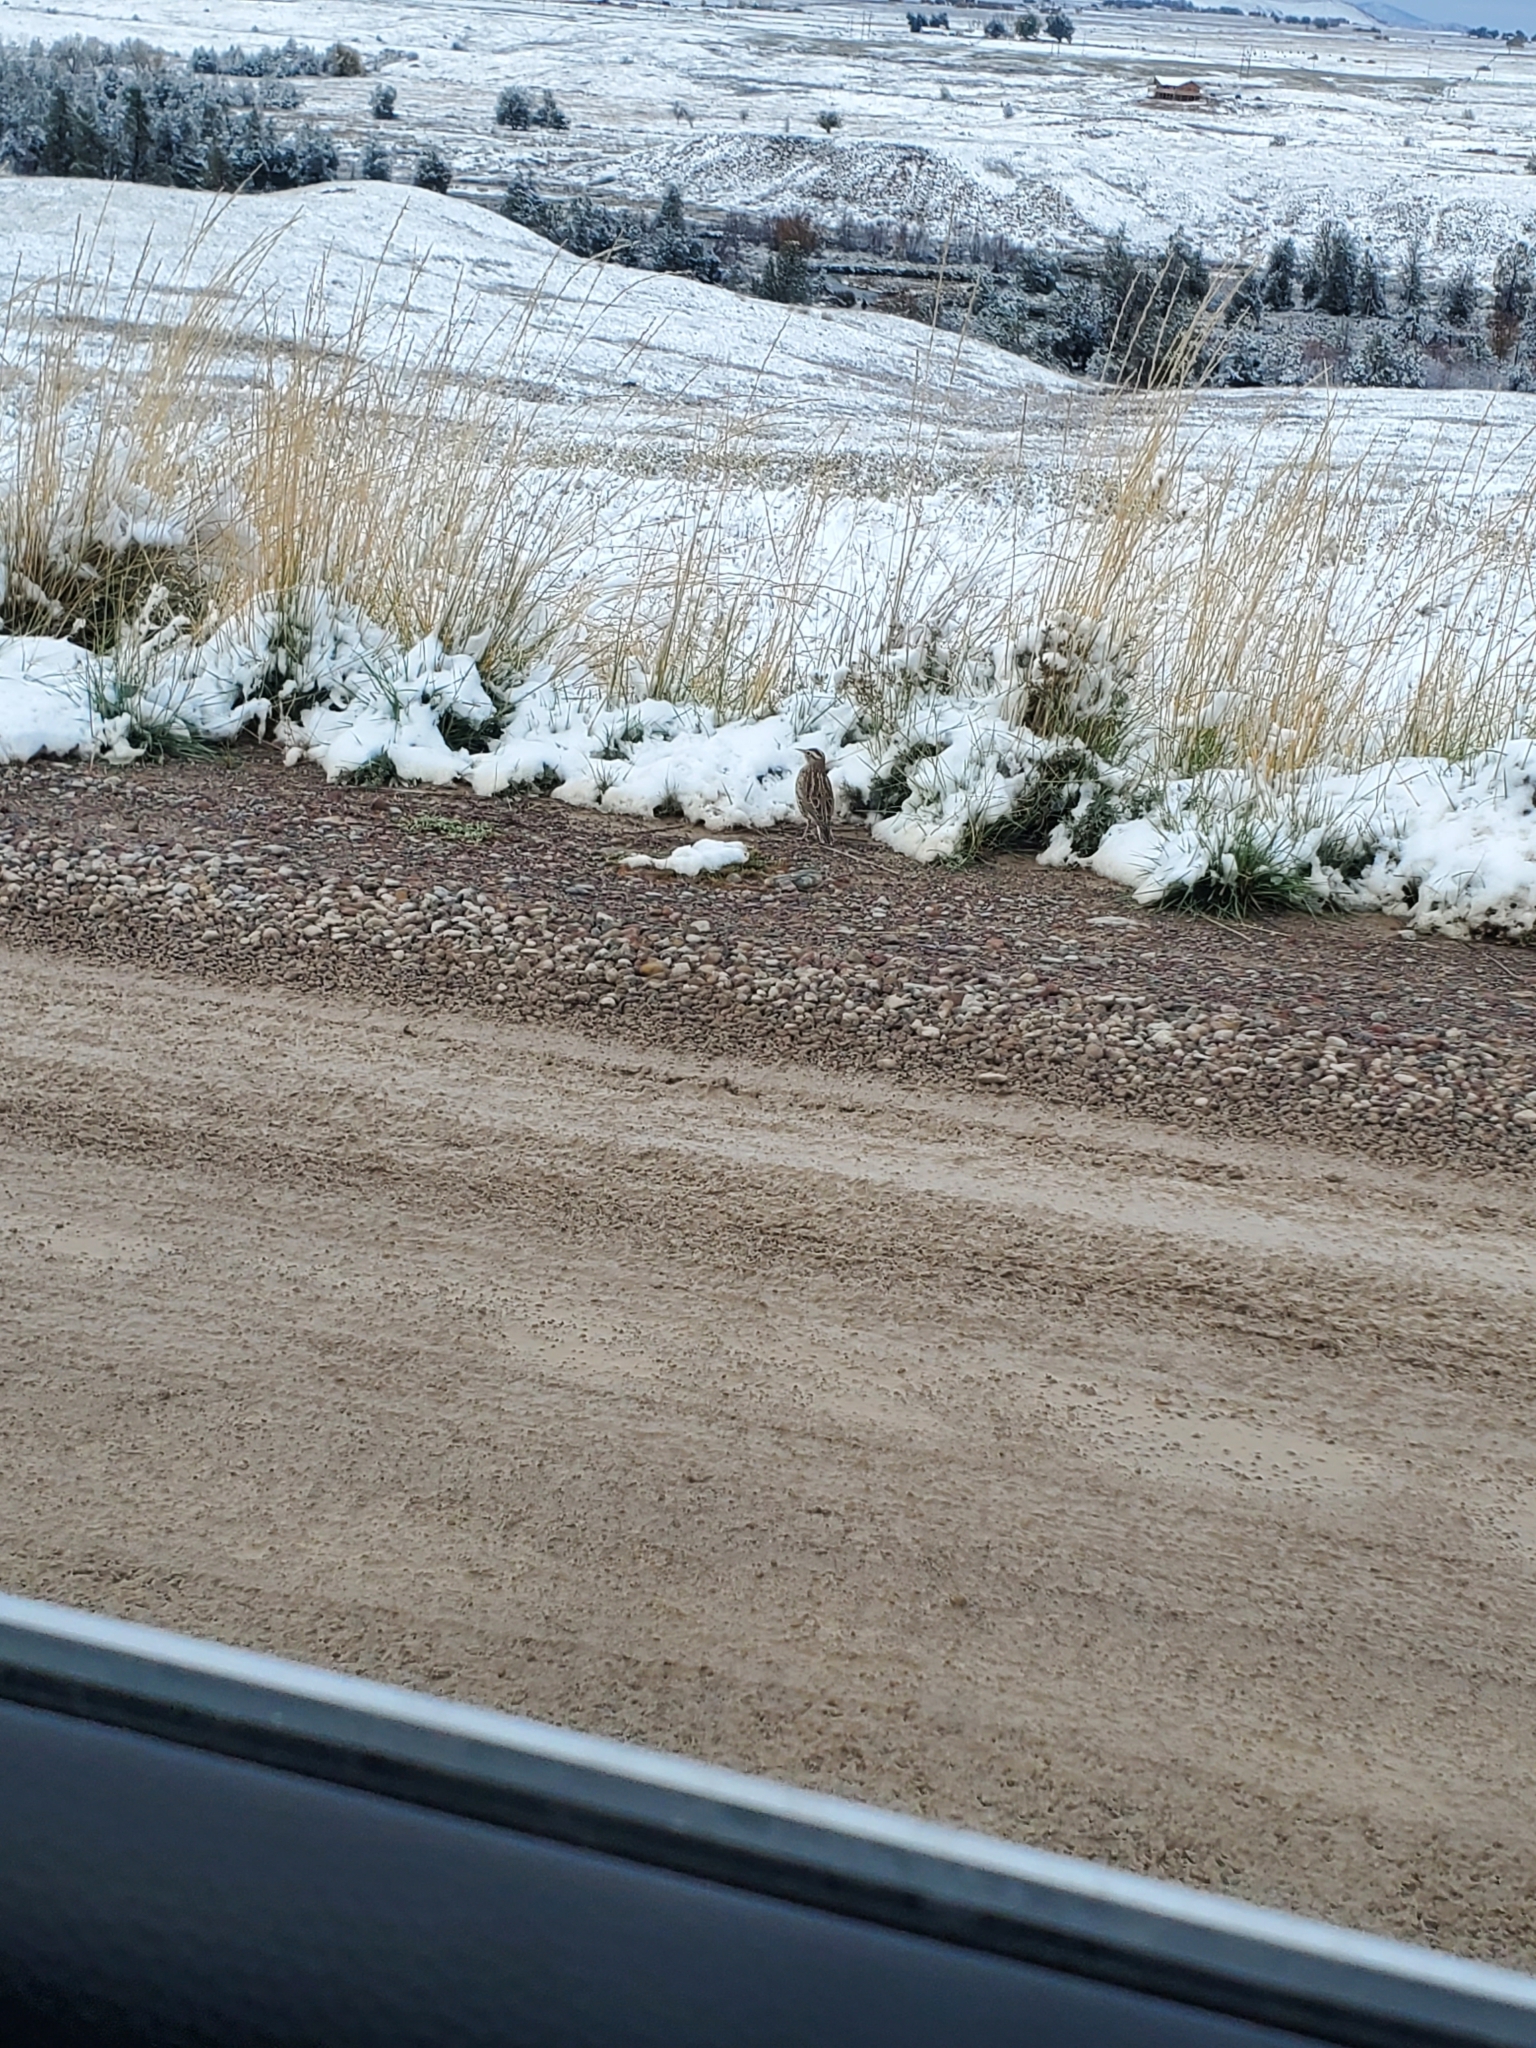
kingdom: Animalia
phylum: Chordata
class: Aves
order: Passeriformes
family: Icteridae
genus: Sturnella
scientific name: Sturnella neglecta
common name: Western meadowlark
